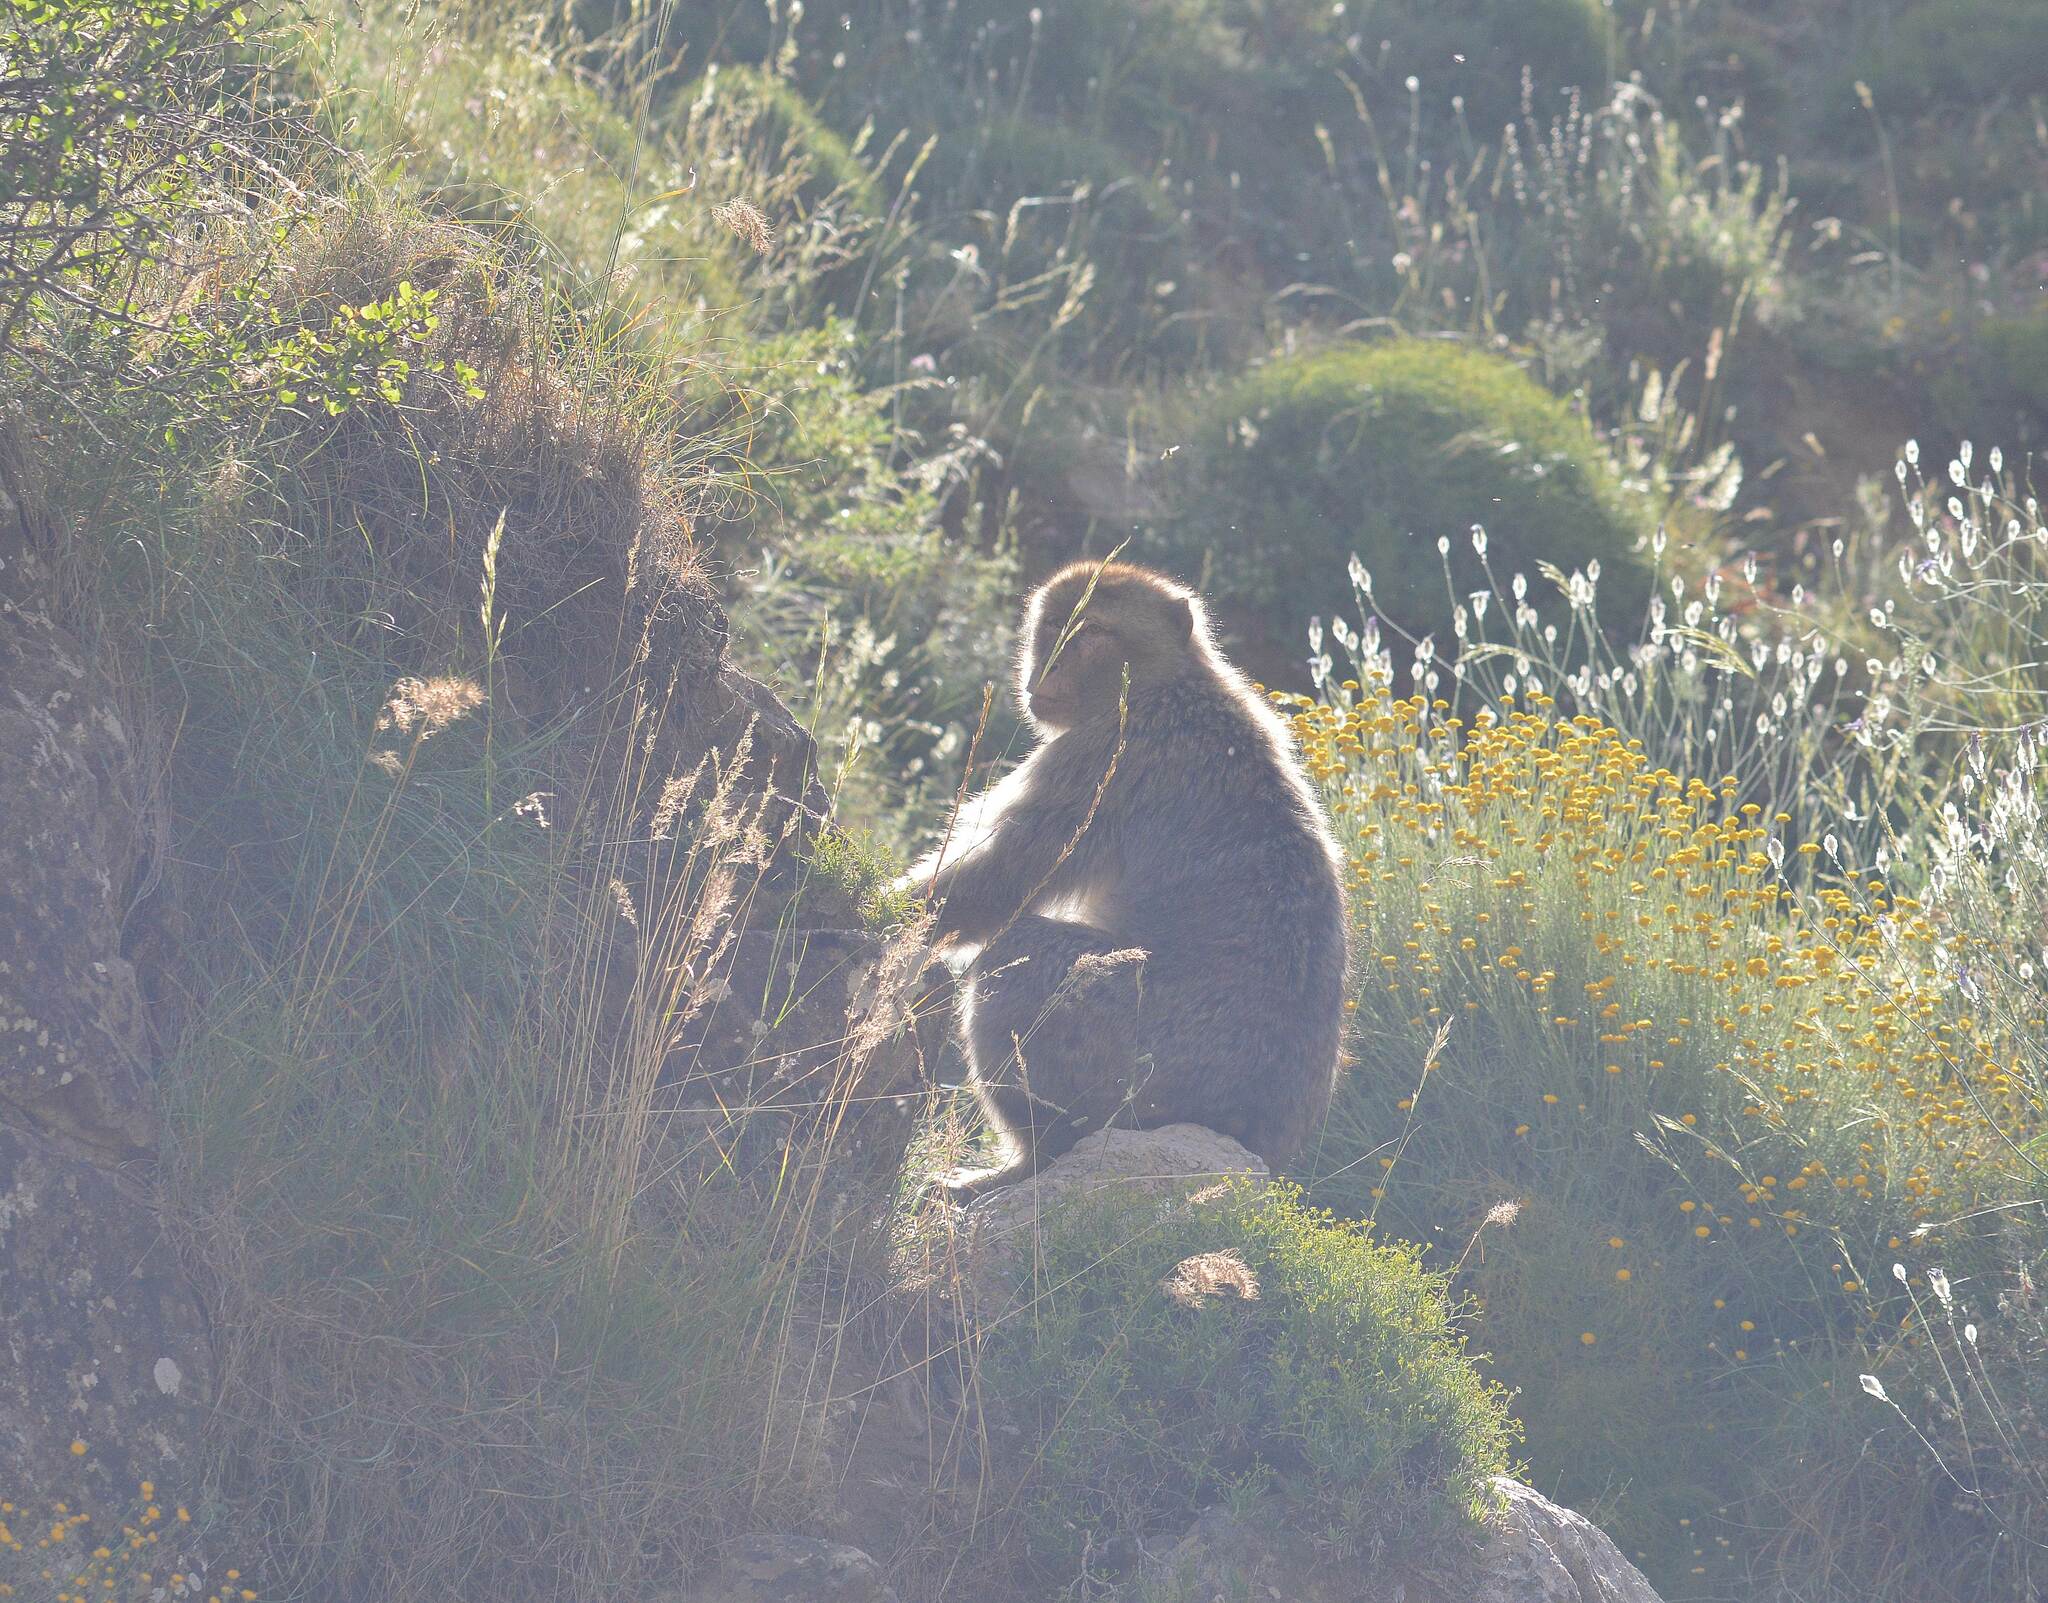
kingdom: Animalia
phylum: Chordata
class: Mammalia
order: Primates
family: Cercopithecidae
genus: Macaca
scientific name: Macaca sylvanus
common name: Barbary macaque
